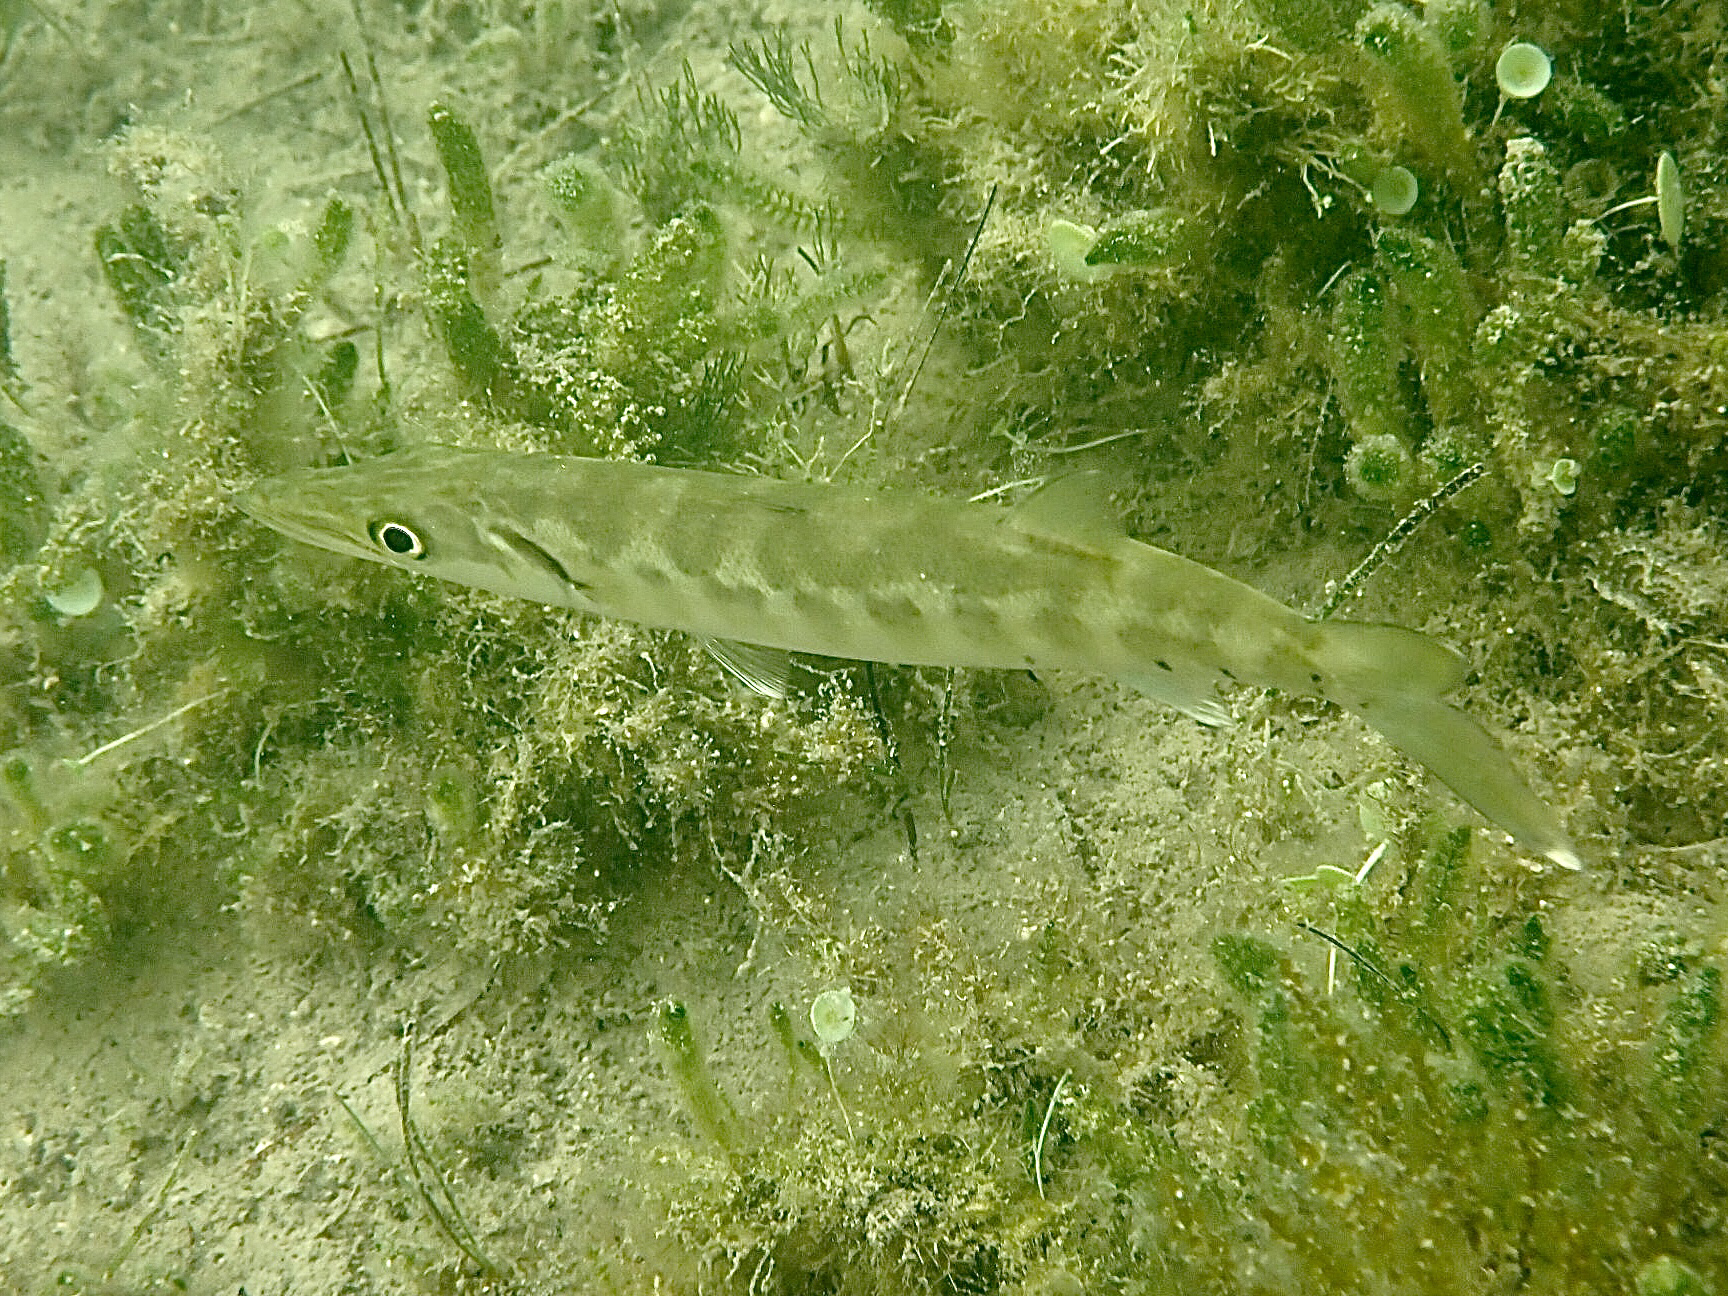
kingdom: Animalia
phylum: Chordata
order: Perciformes
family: Sphyraenidae
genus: Sphyraena
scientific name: Sphyraena barracuda
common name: Great barracuda
